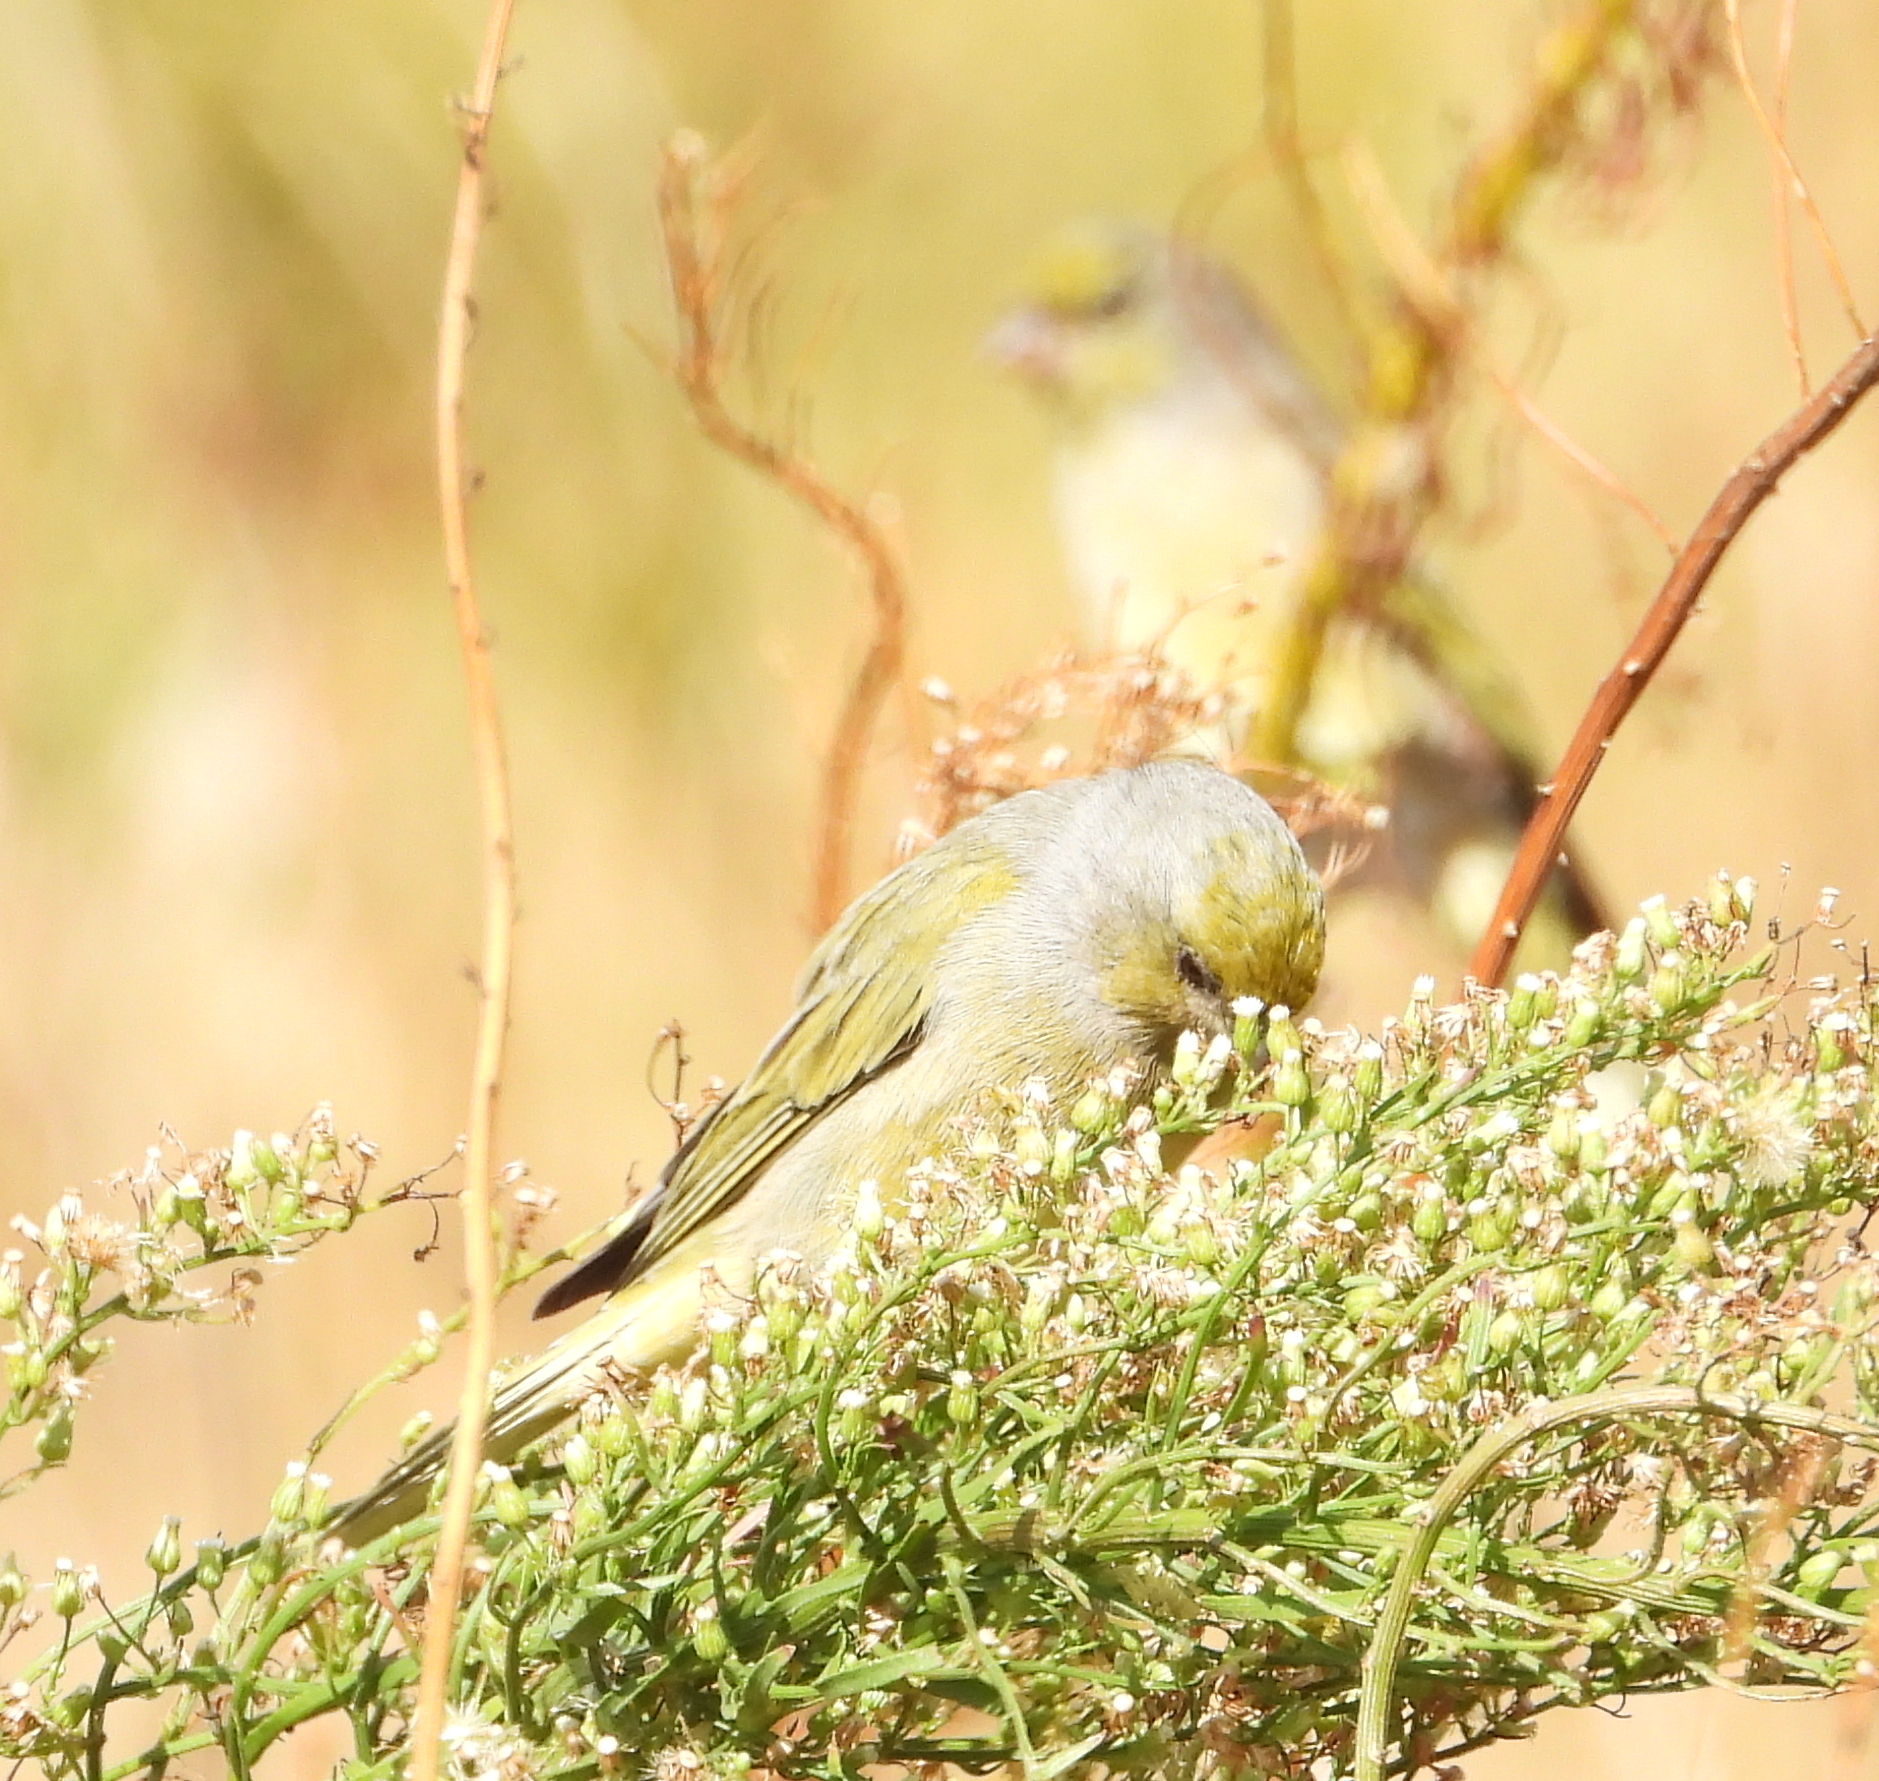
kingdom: Animalia
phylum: Chordata
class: Aves
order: Passeriformes
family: Fringillidae
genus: Serinus
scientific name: Serinus canicollis
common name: Cape canary
